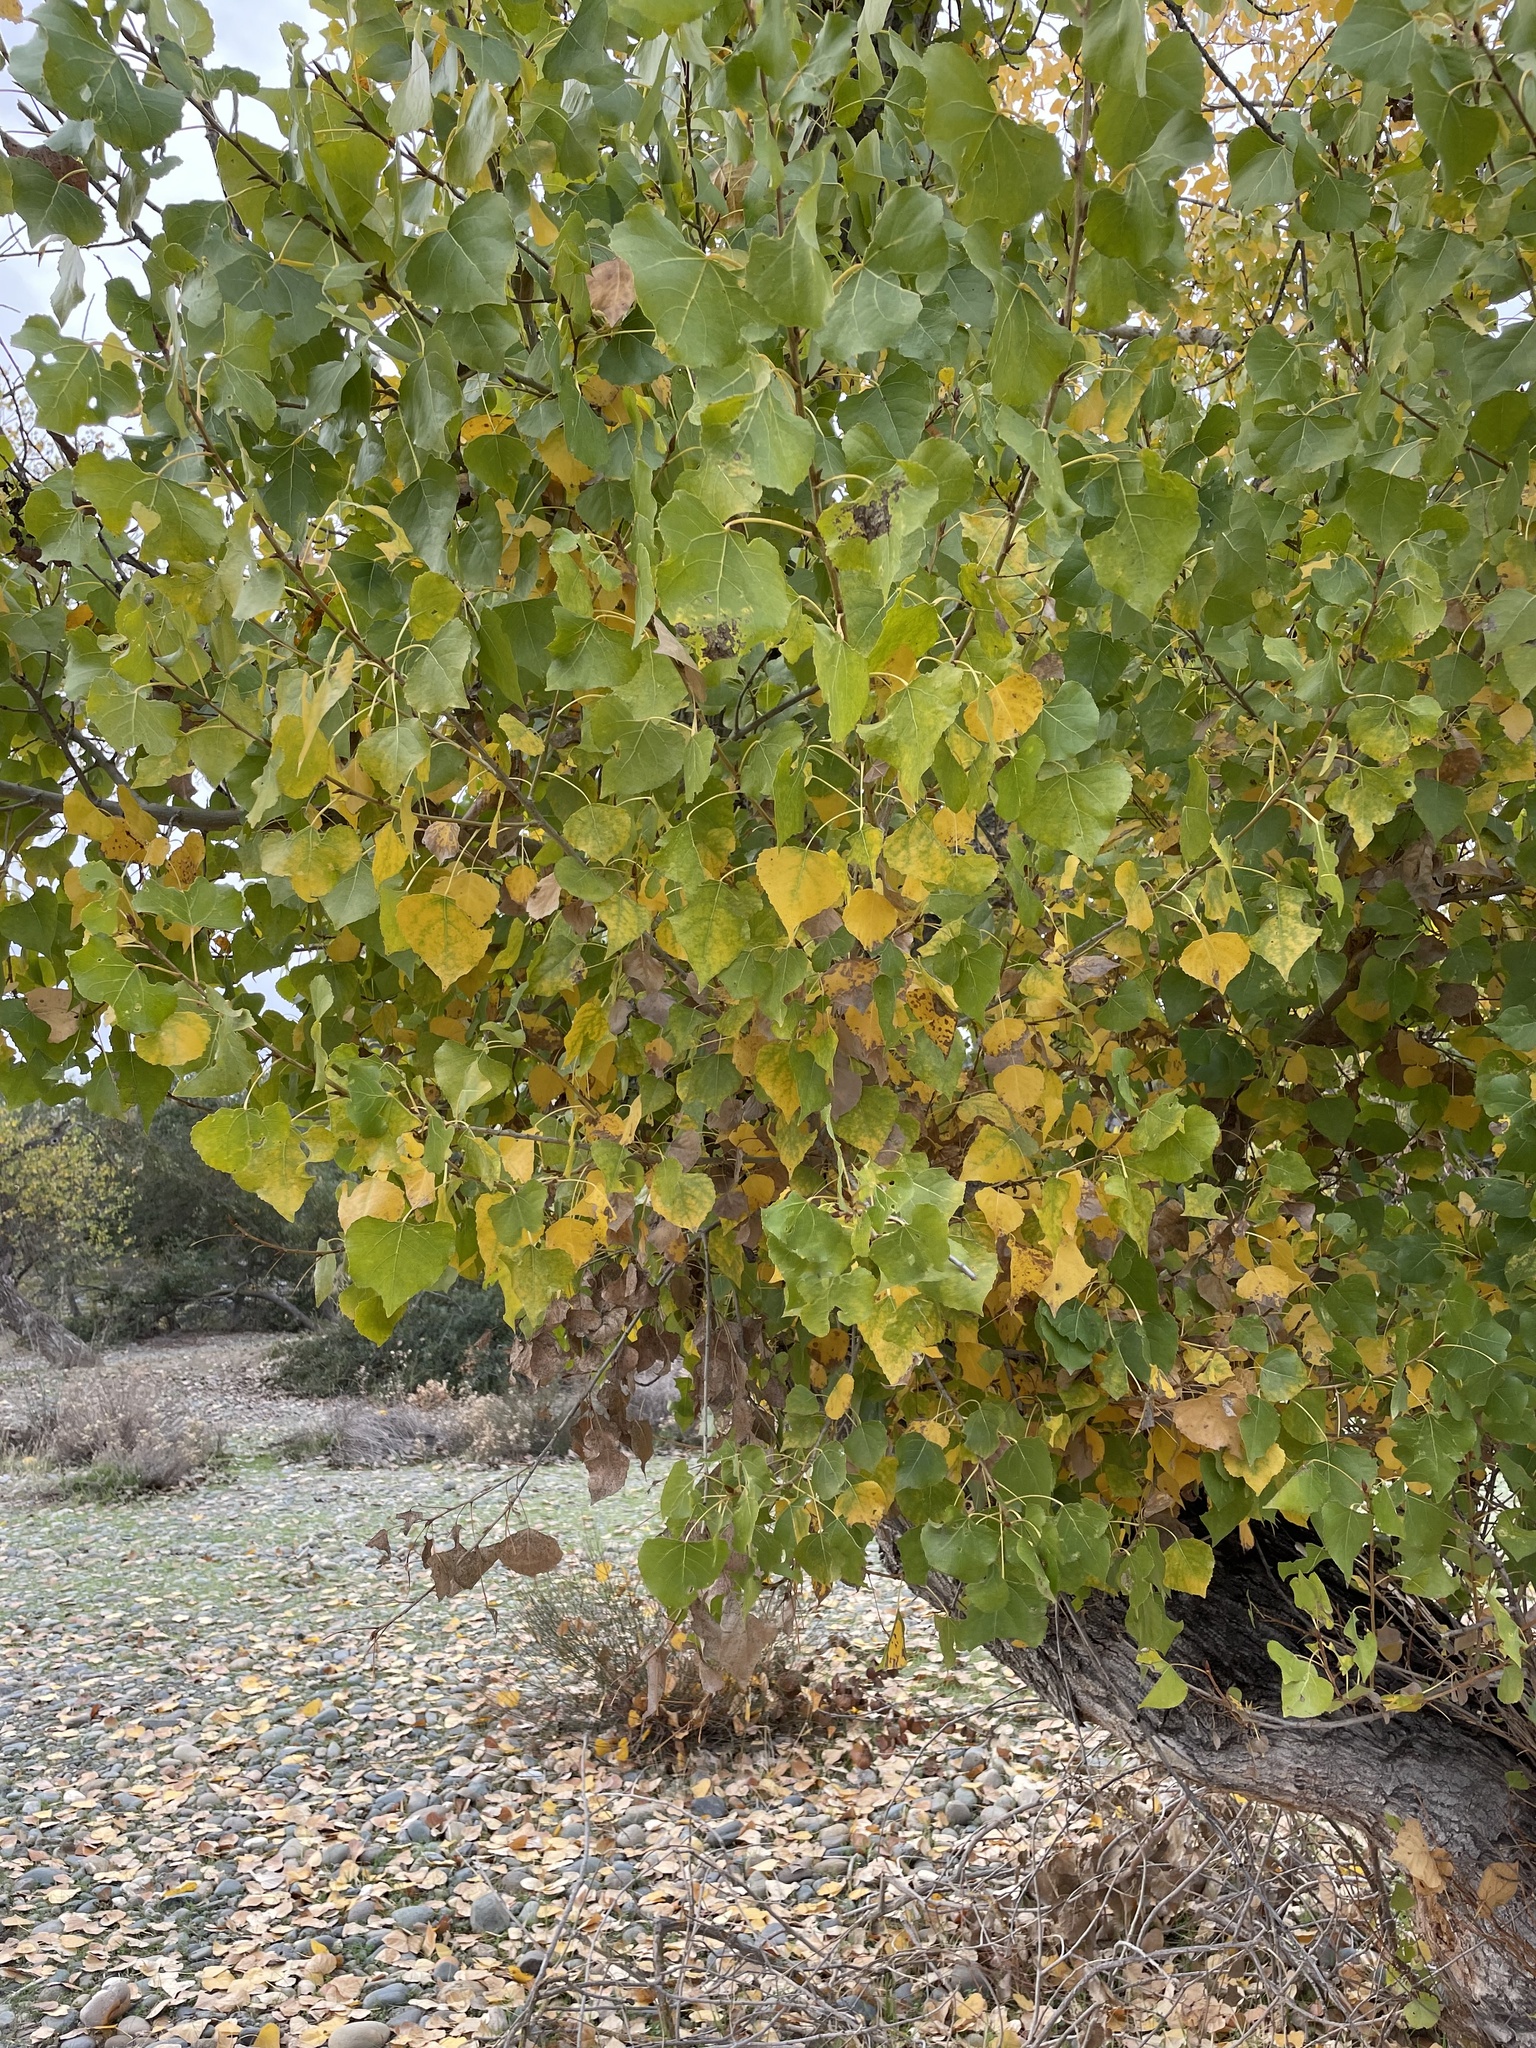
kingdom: Plantae
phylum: Tracheophyta
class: Magnoliopsida
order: Malpighiales
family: Salicaceae
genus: Populus
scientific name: Populus fremontii
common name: Fremont's cottonwood
